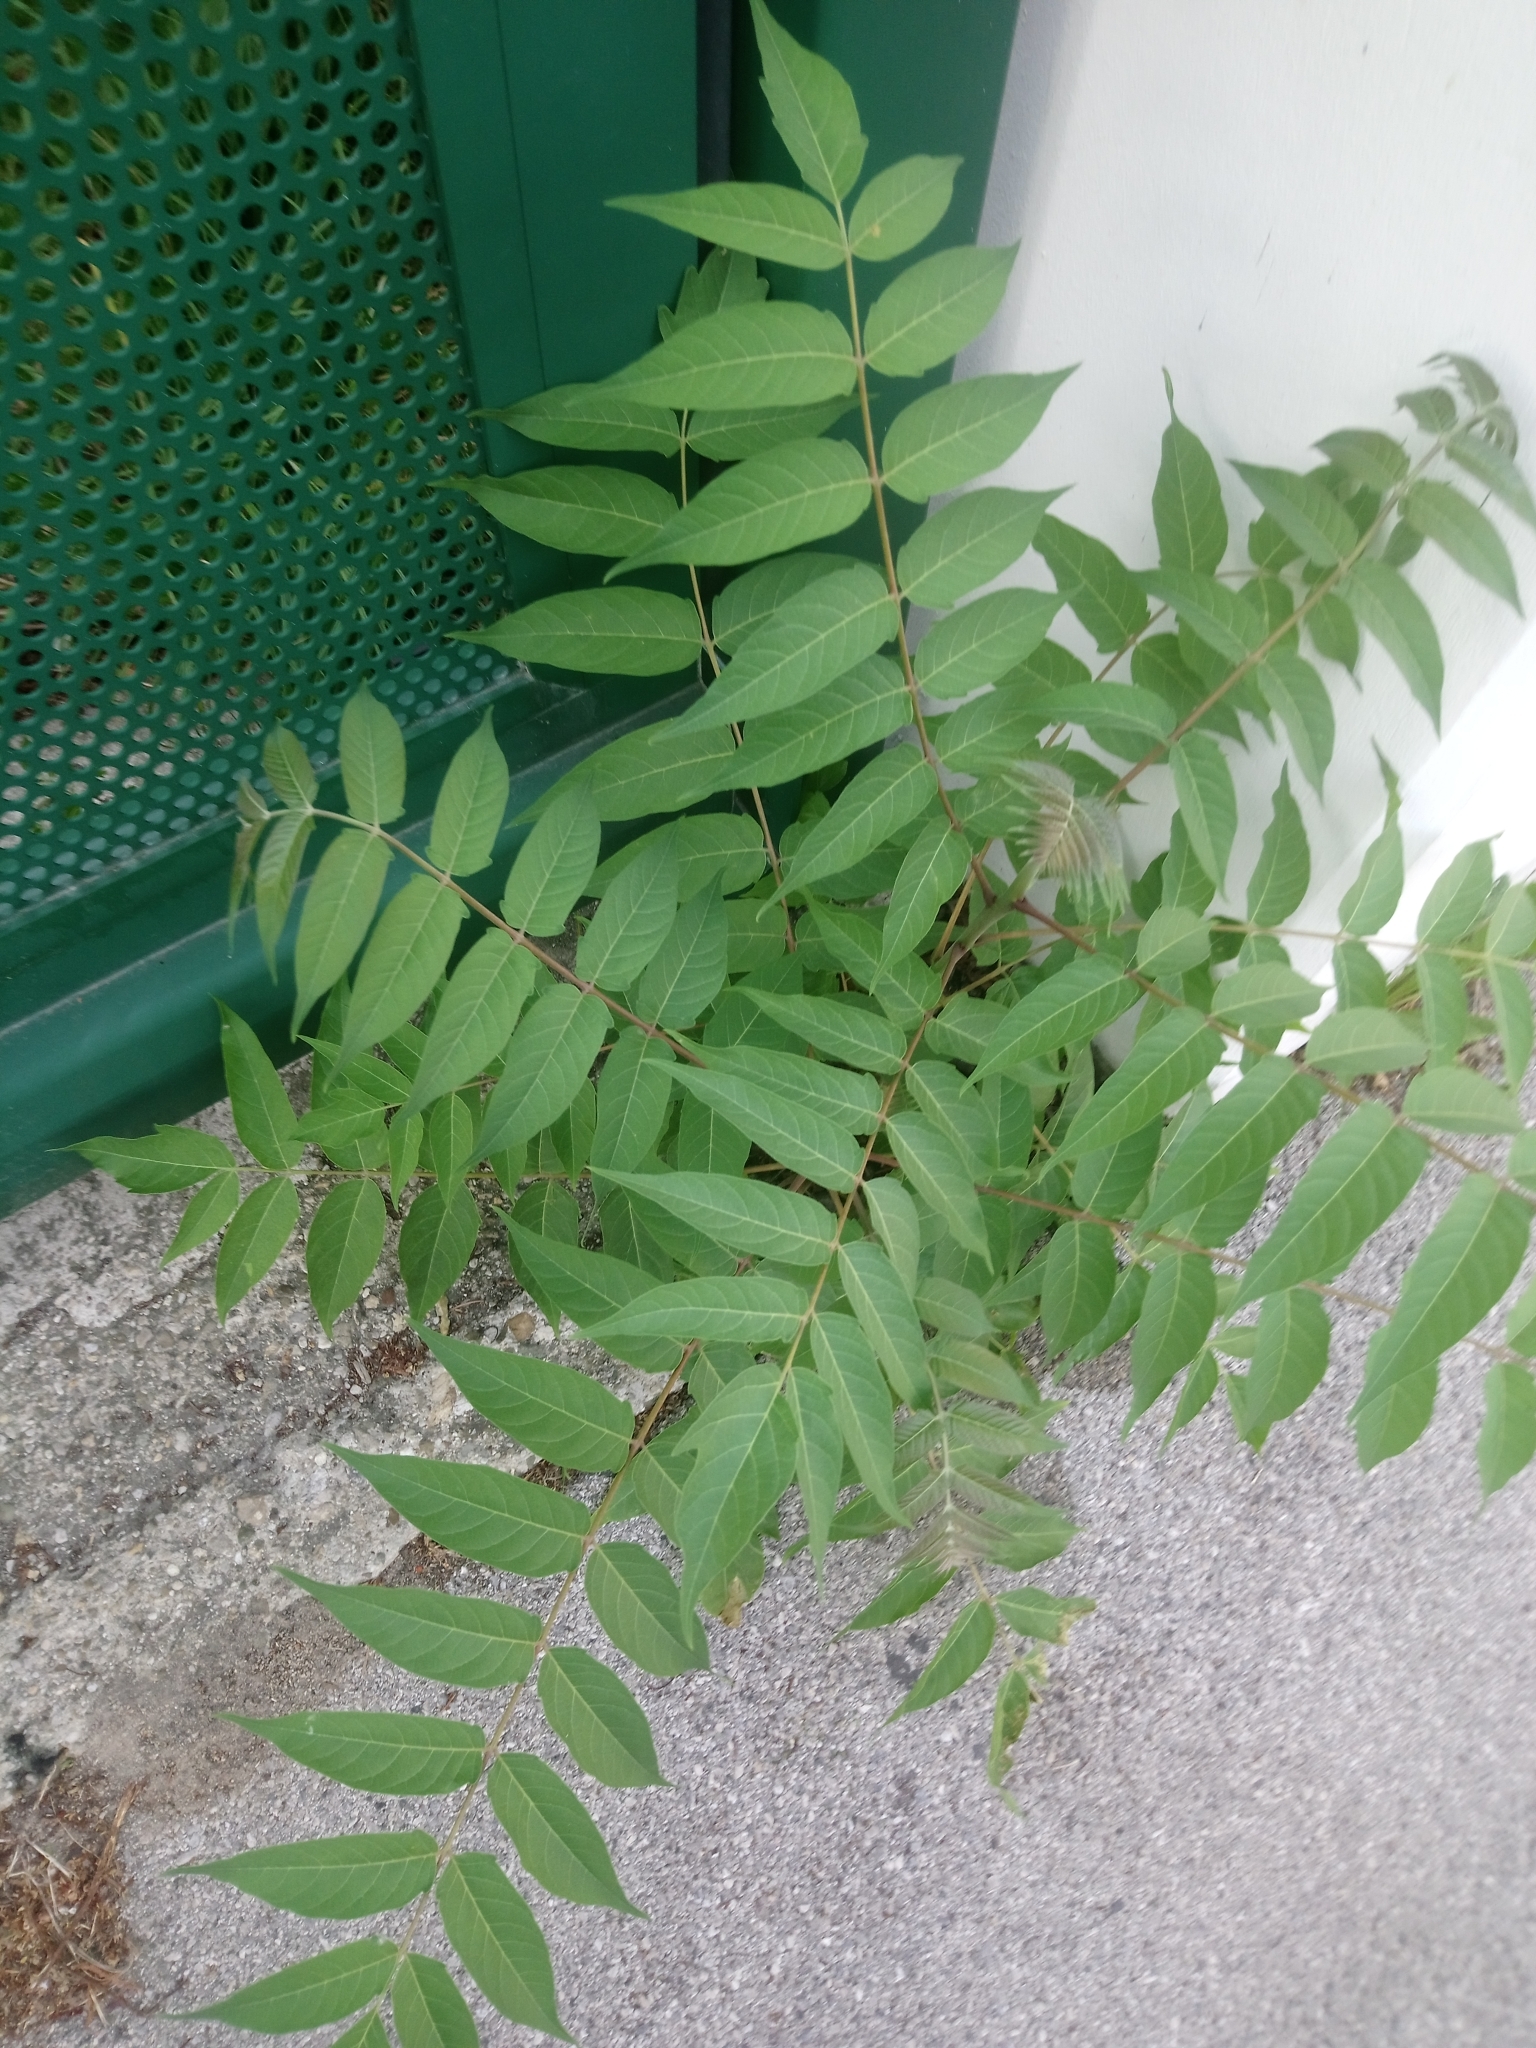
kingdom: Plantae
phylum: Tracheophyta
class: Magnoliopsida
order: Sapindales
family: Simaroubaceae
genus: Ailanthus
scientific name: Ailanthus altissima
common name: Tree-of-heaven
